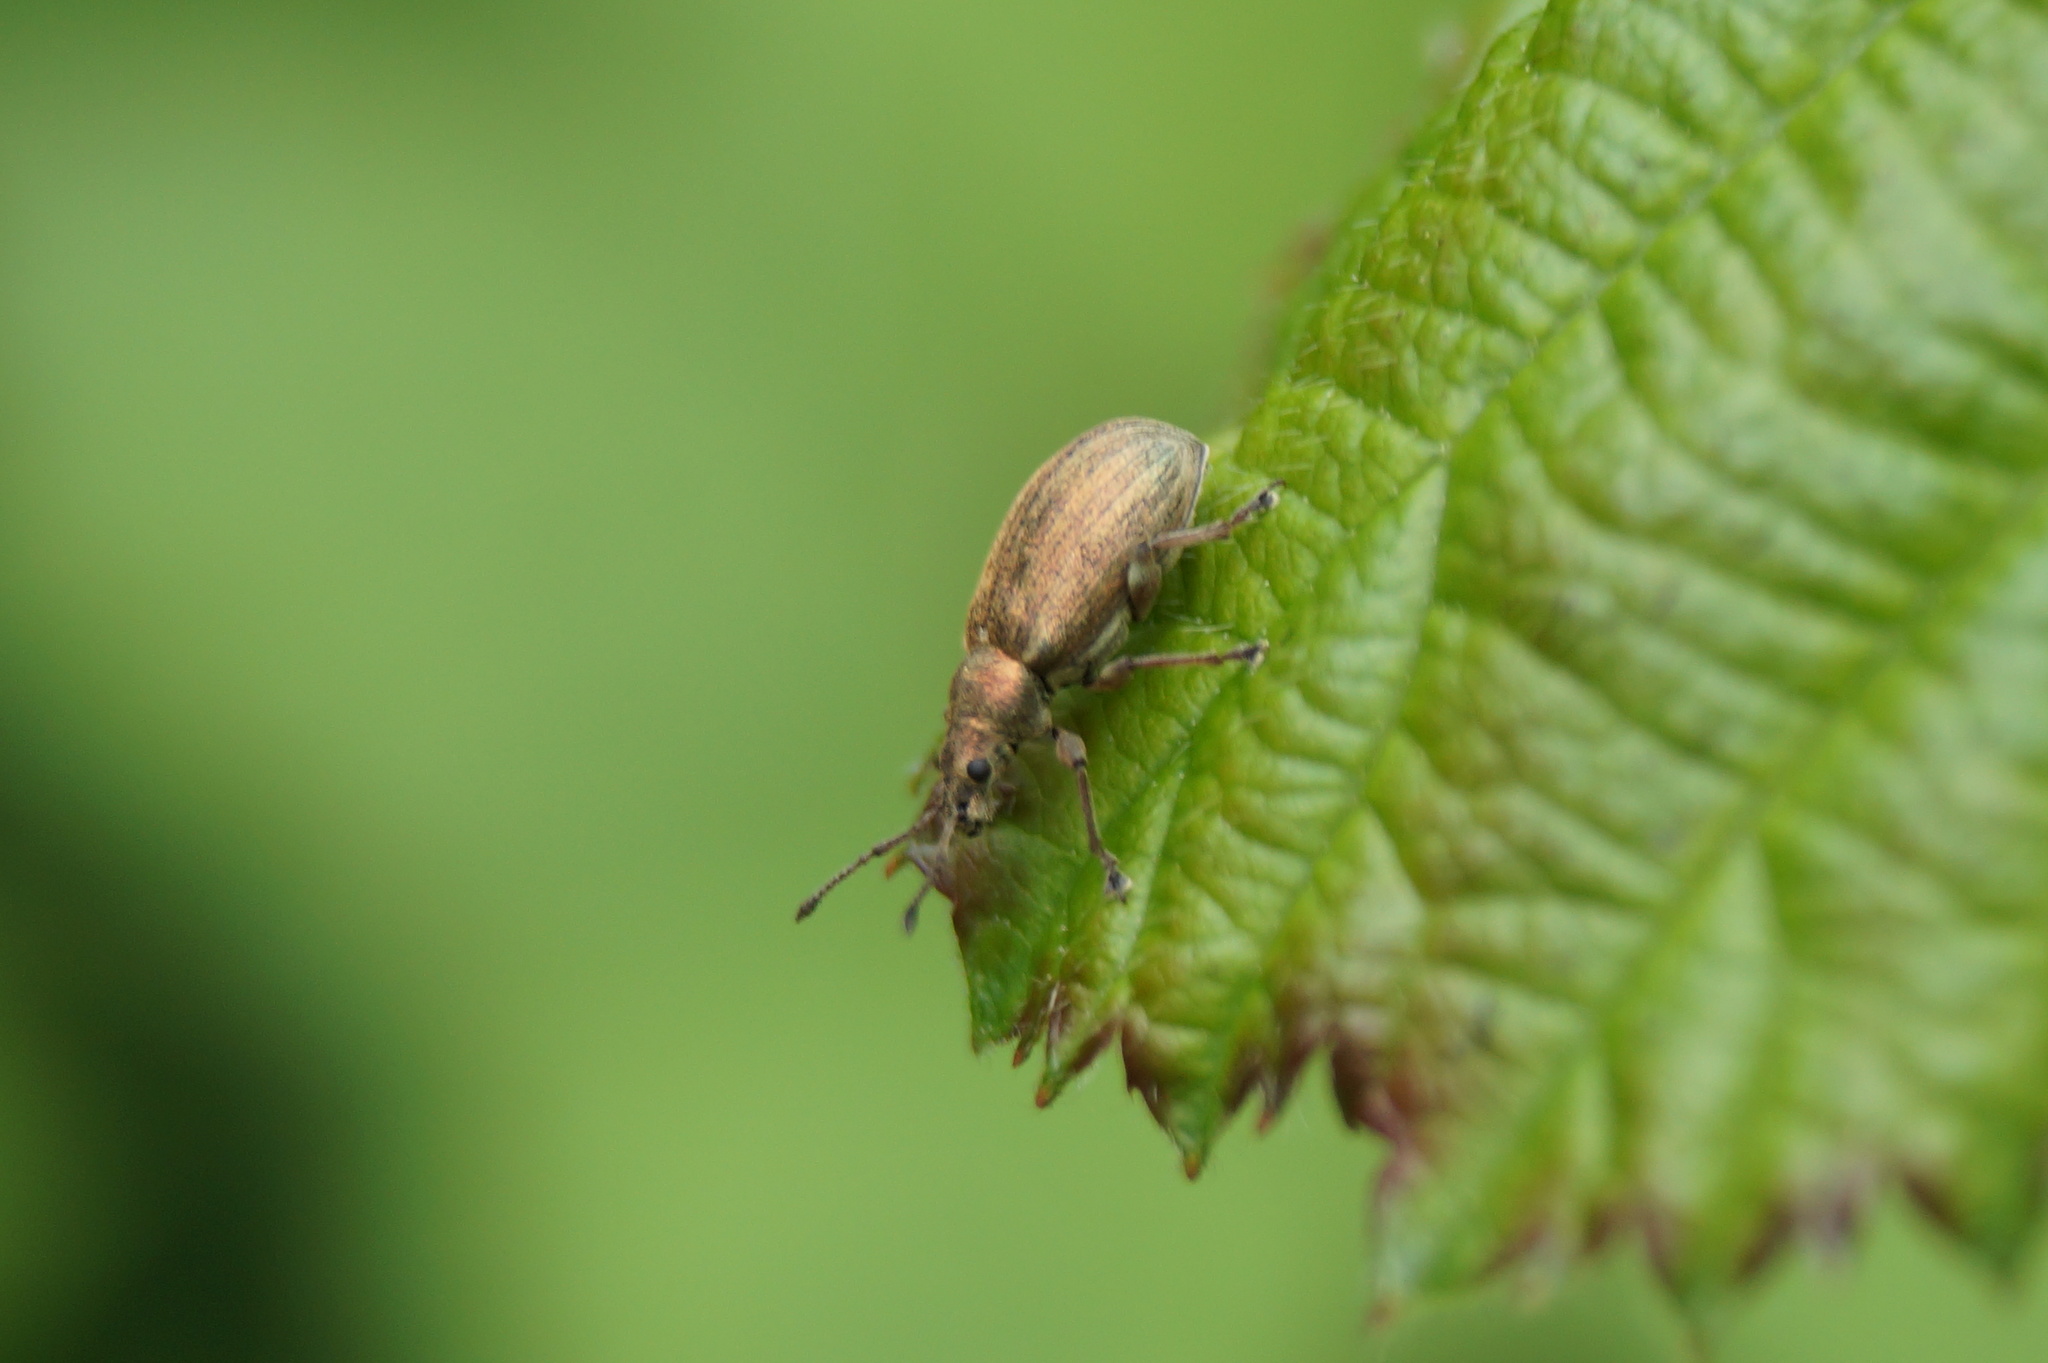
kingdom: Animalia
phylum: Arthropoda
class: Insecta
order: Coleoptera
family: Curculionidae
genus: Phyllobius
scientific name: Phyllobius pyri
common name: Common leaf weevil
